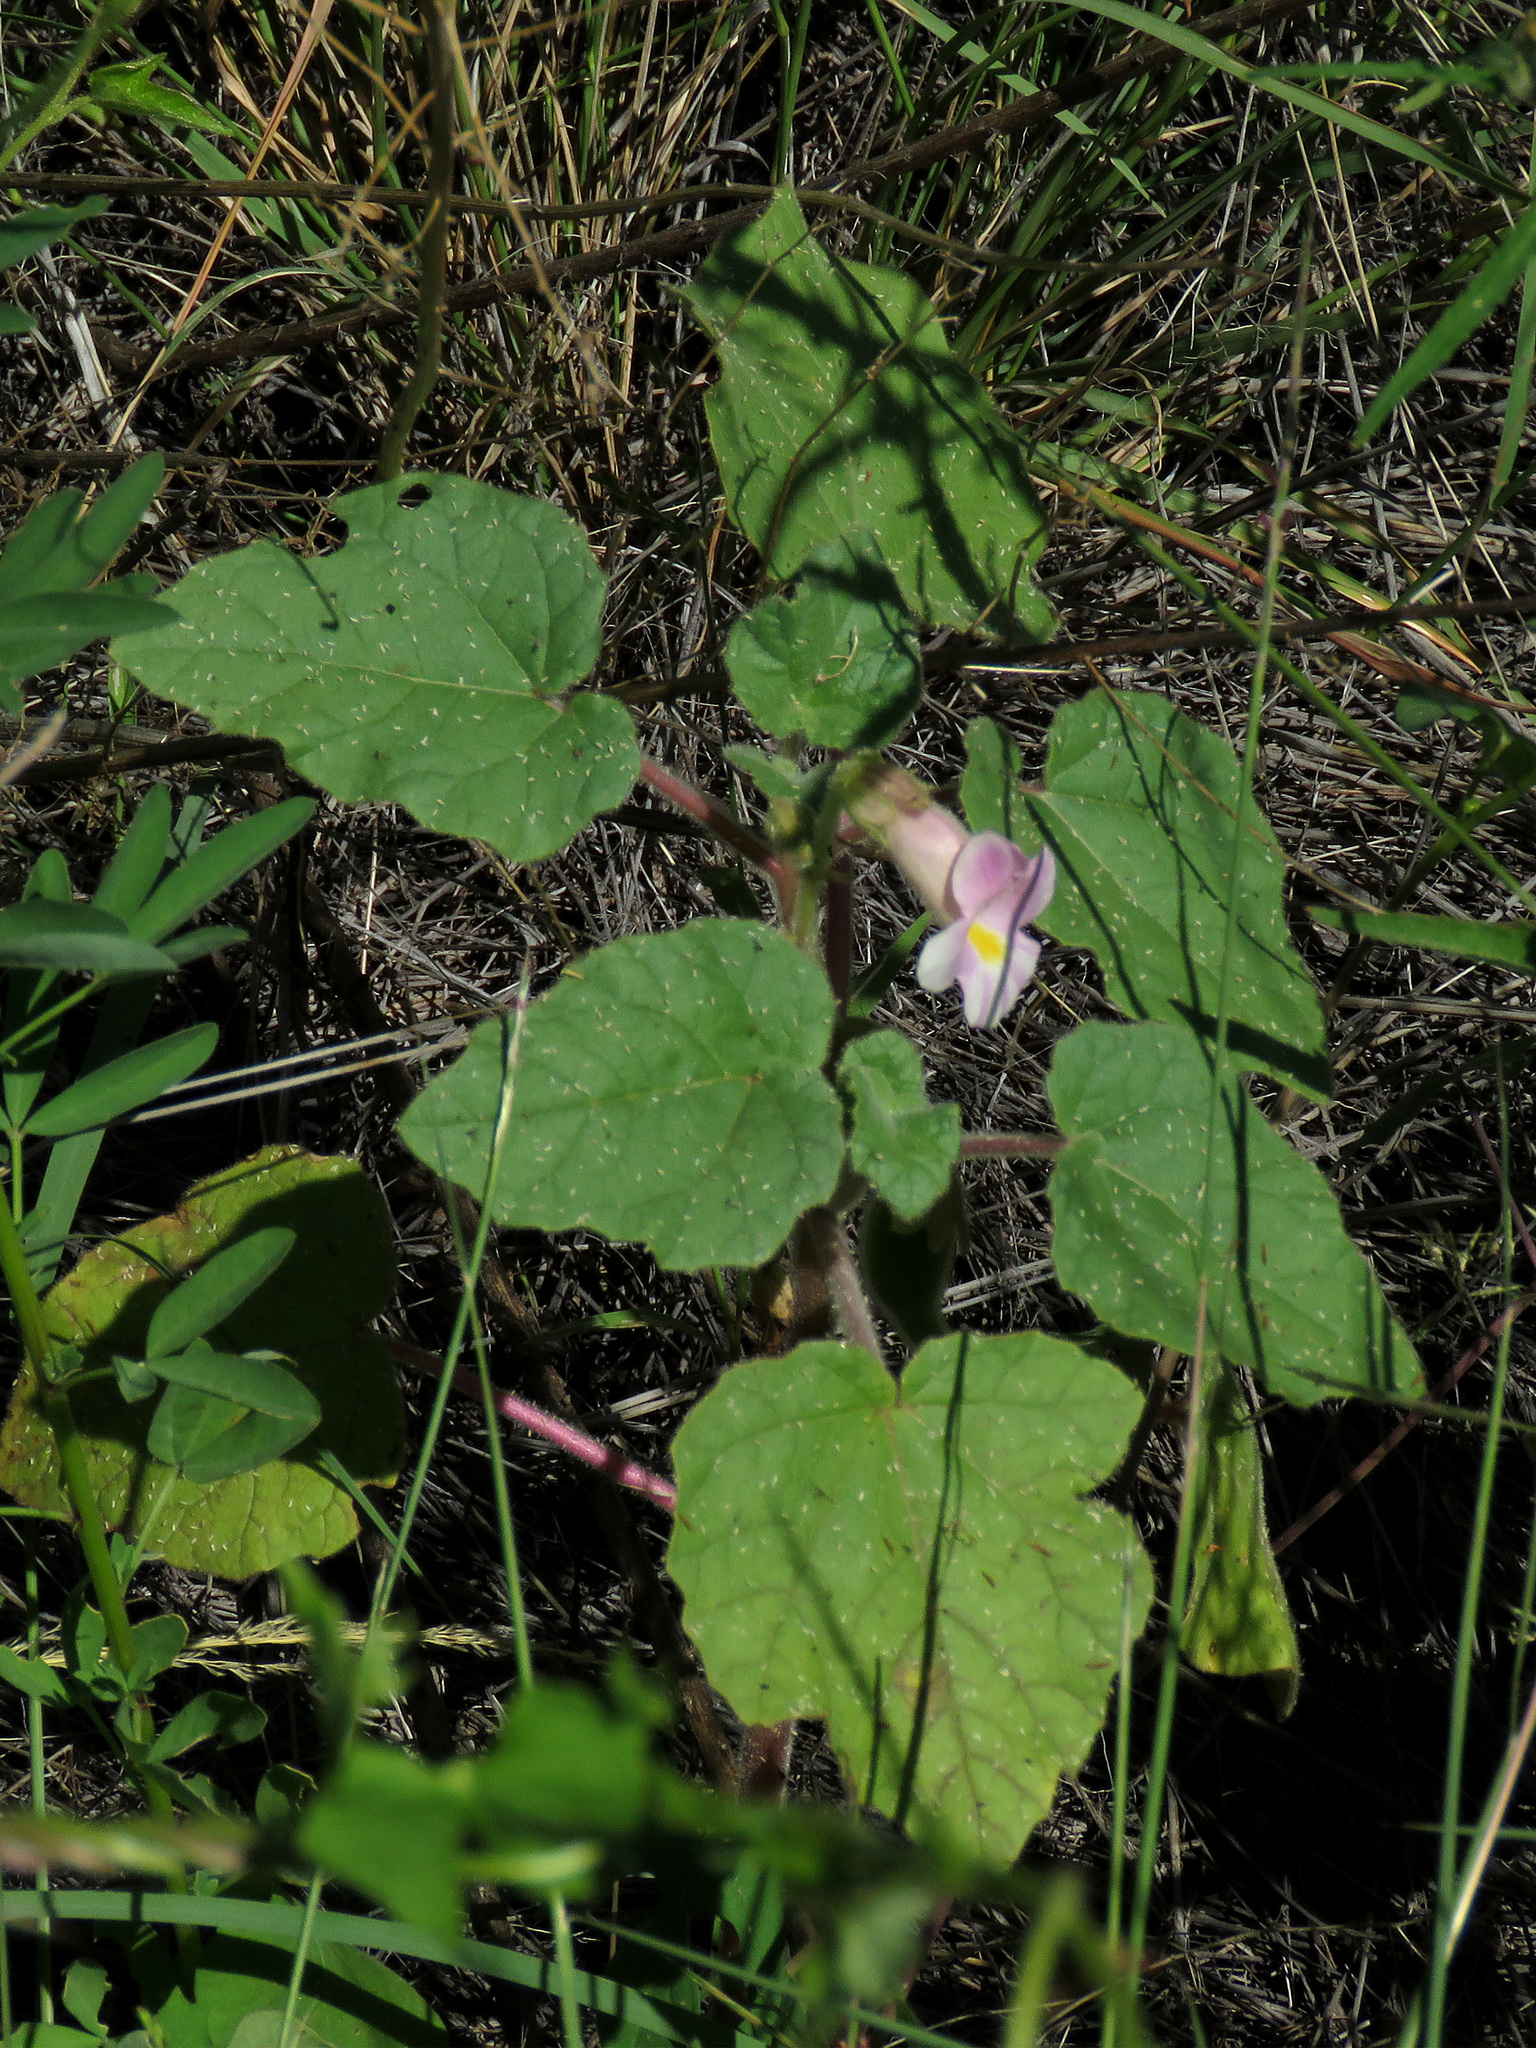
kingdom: Plantae
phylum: Tracheophyta
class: Magnoliopsida
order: Lamiales
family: Martyniaceae
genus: Proboscidea
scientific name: Proboscidea parviflora
